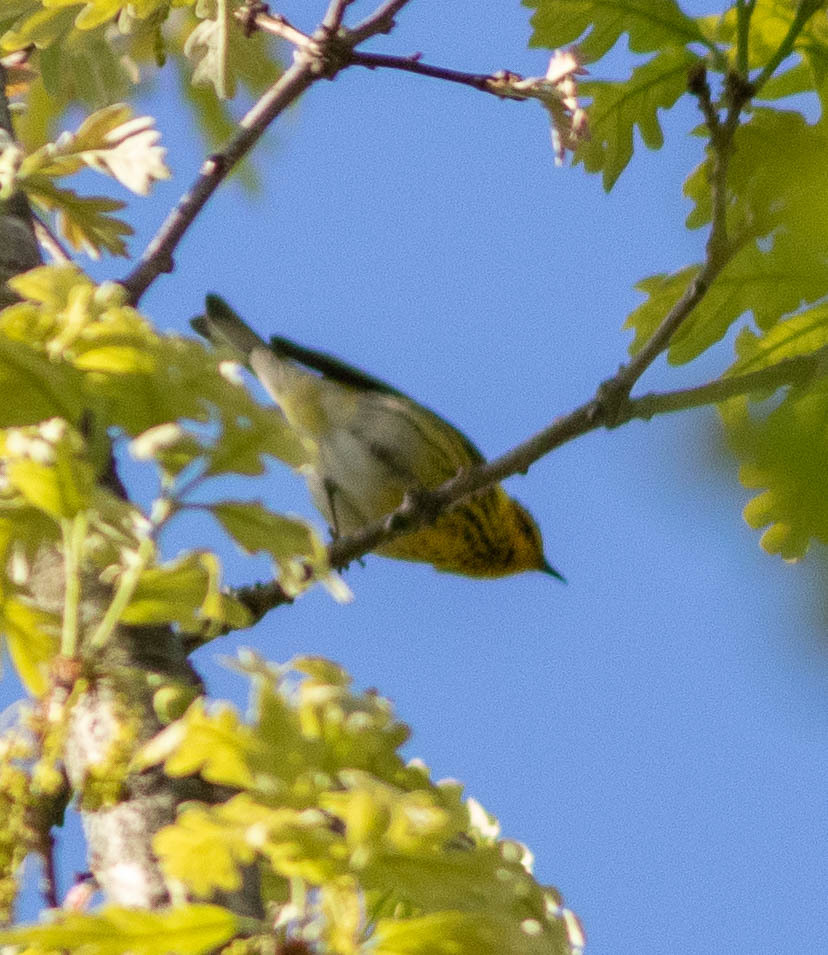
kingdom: Animalia
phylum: Chordata
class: Aves
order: Passeriformes
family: Parulidae
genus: Setophaga
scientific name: Setophaga tigrina
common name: Cape may warbler
